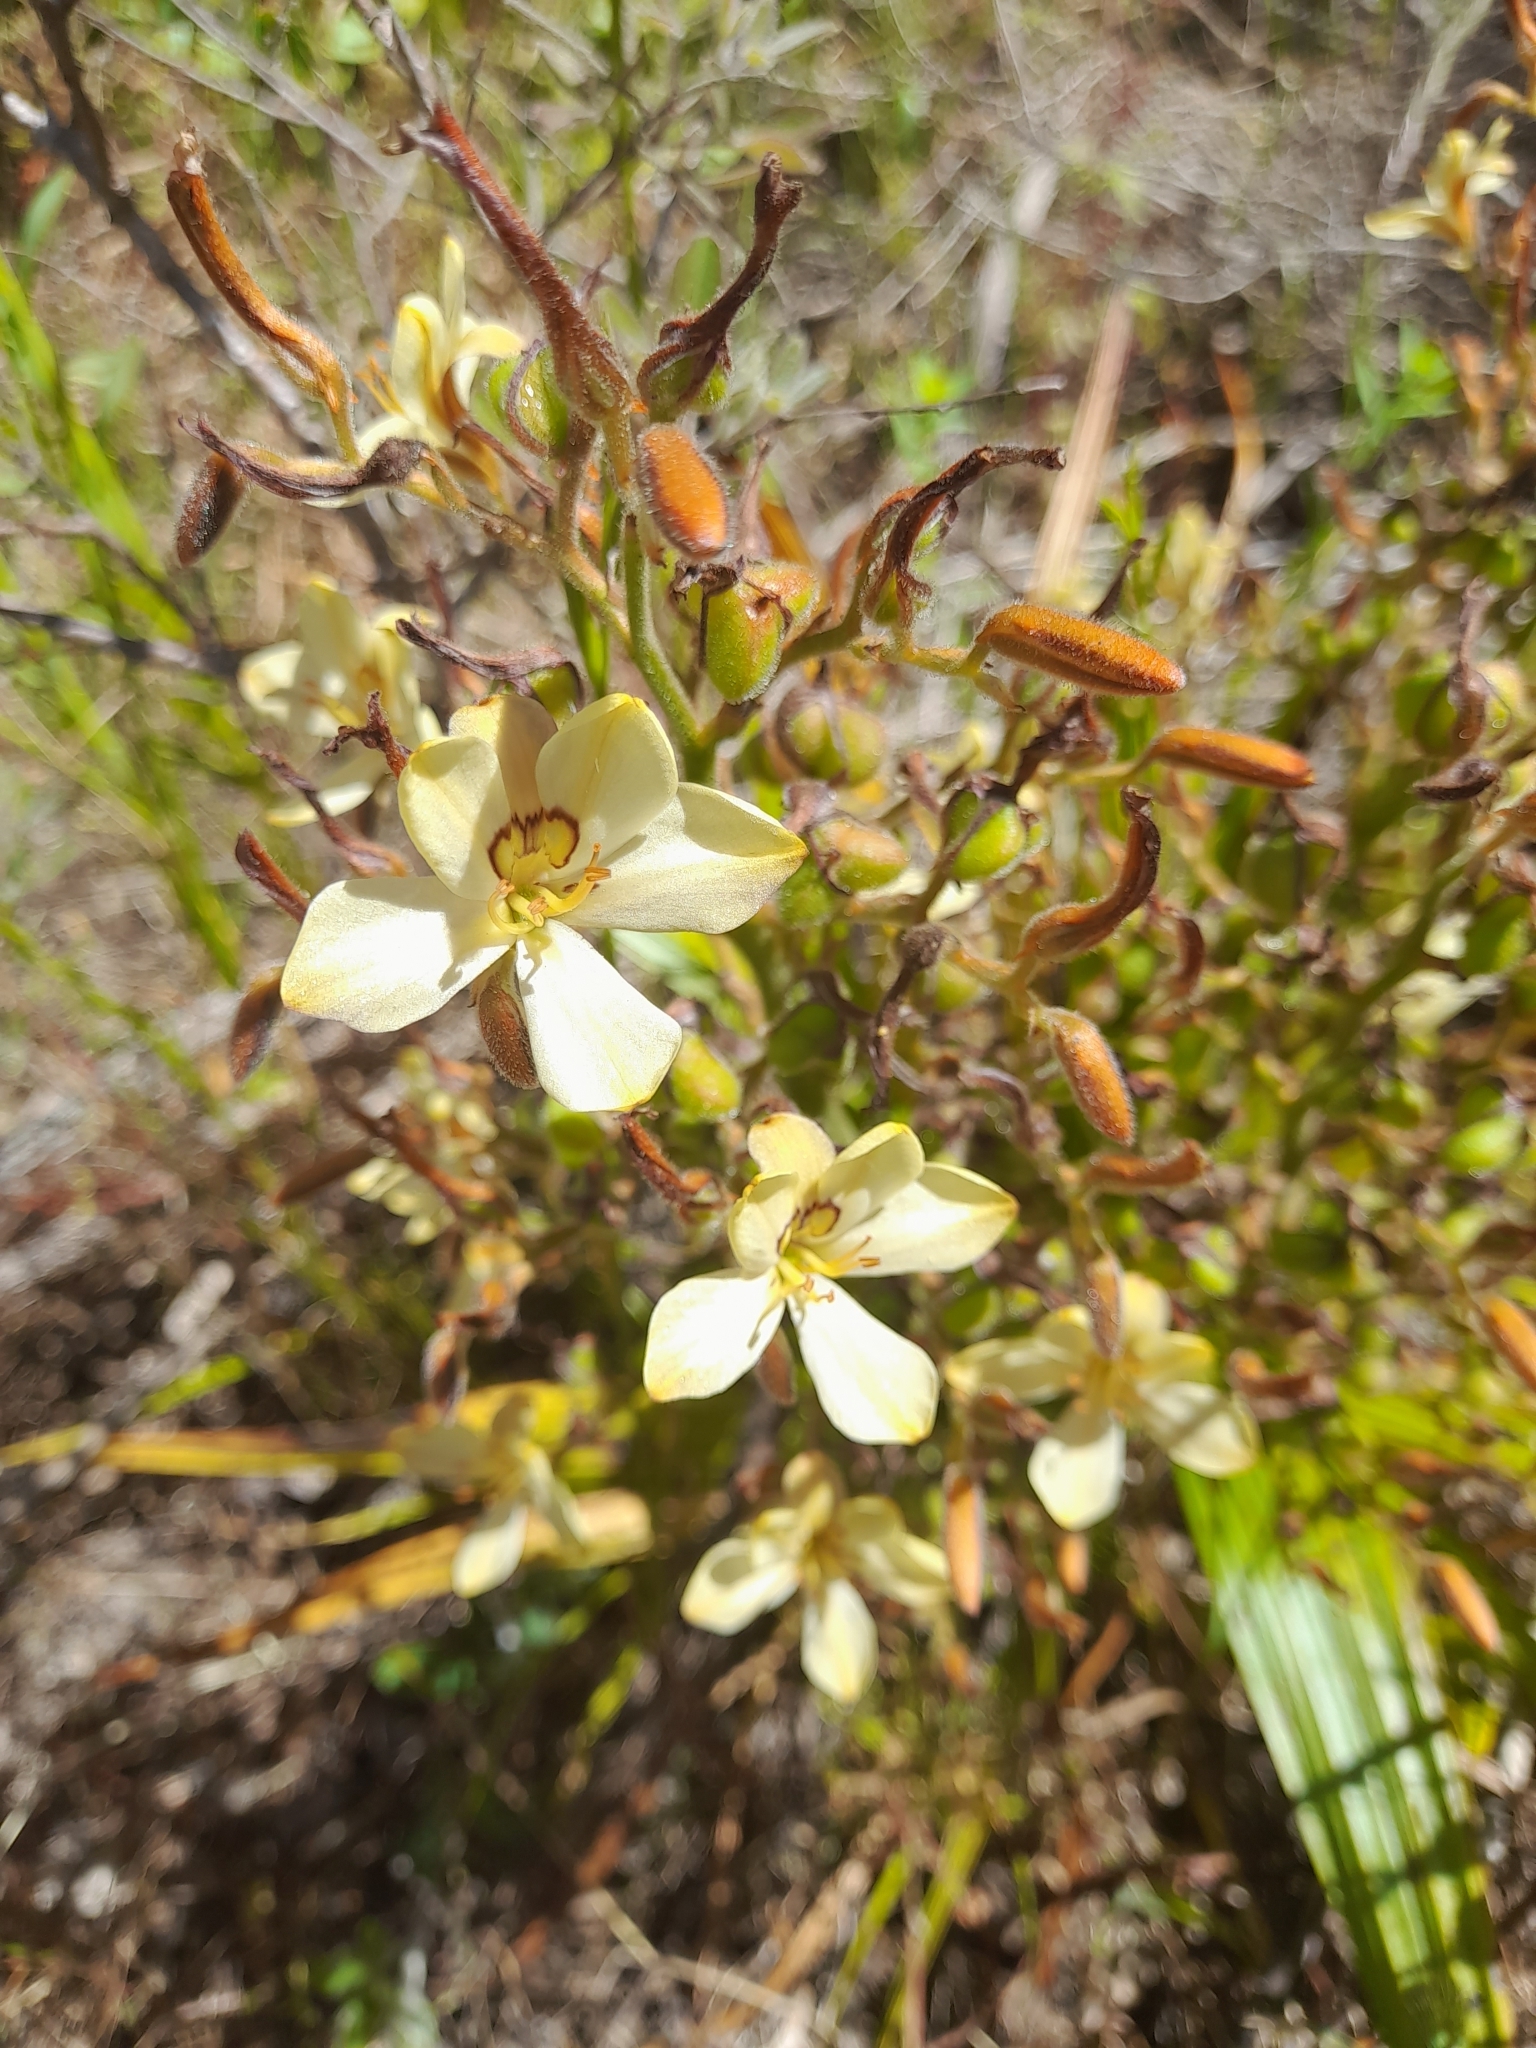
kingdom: Plantae
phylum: Tracheophyta
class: Liliopsida
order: Commelinales
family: Haemodoraceae
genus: Wachendorfia
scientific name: Wachendorfia paniculata
